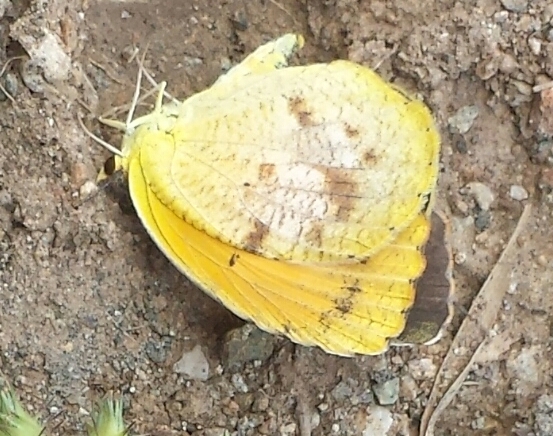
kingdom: Animalia
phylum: Arthropoda
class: Insecta
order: Lepidoptera
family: Pieridae
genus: Abaeis
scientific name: Abaeis nicippe
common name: Sleepy orange
